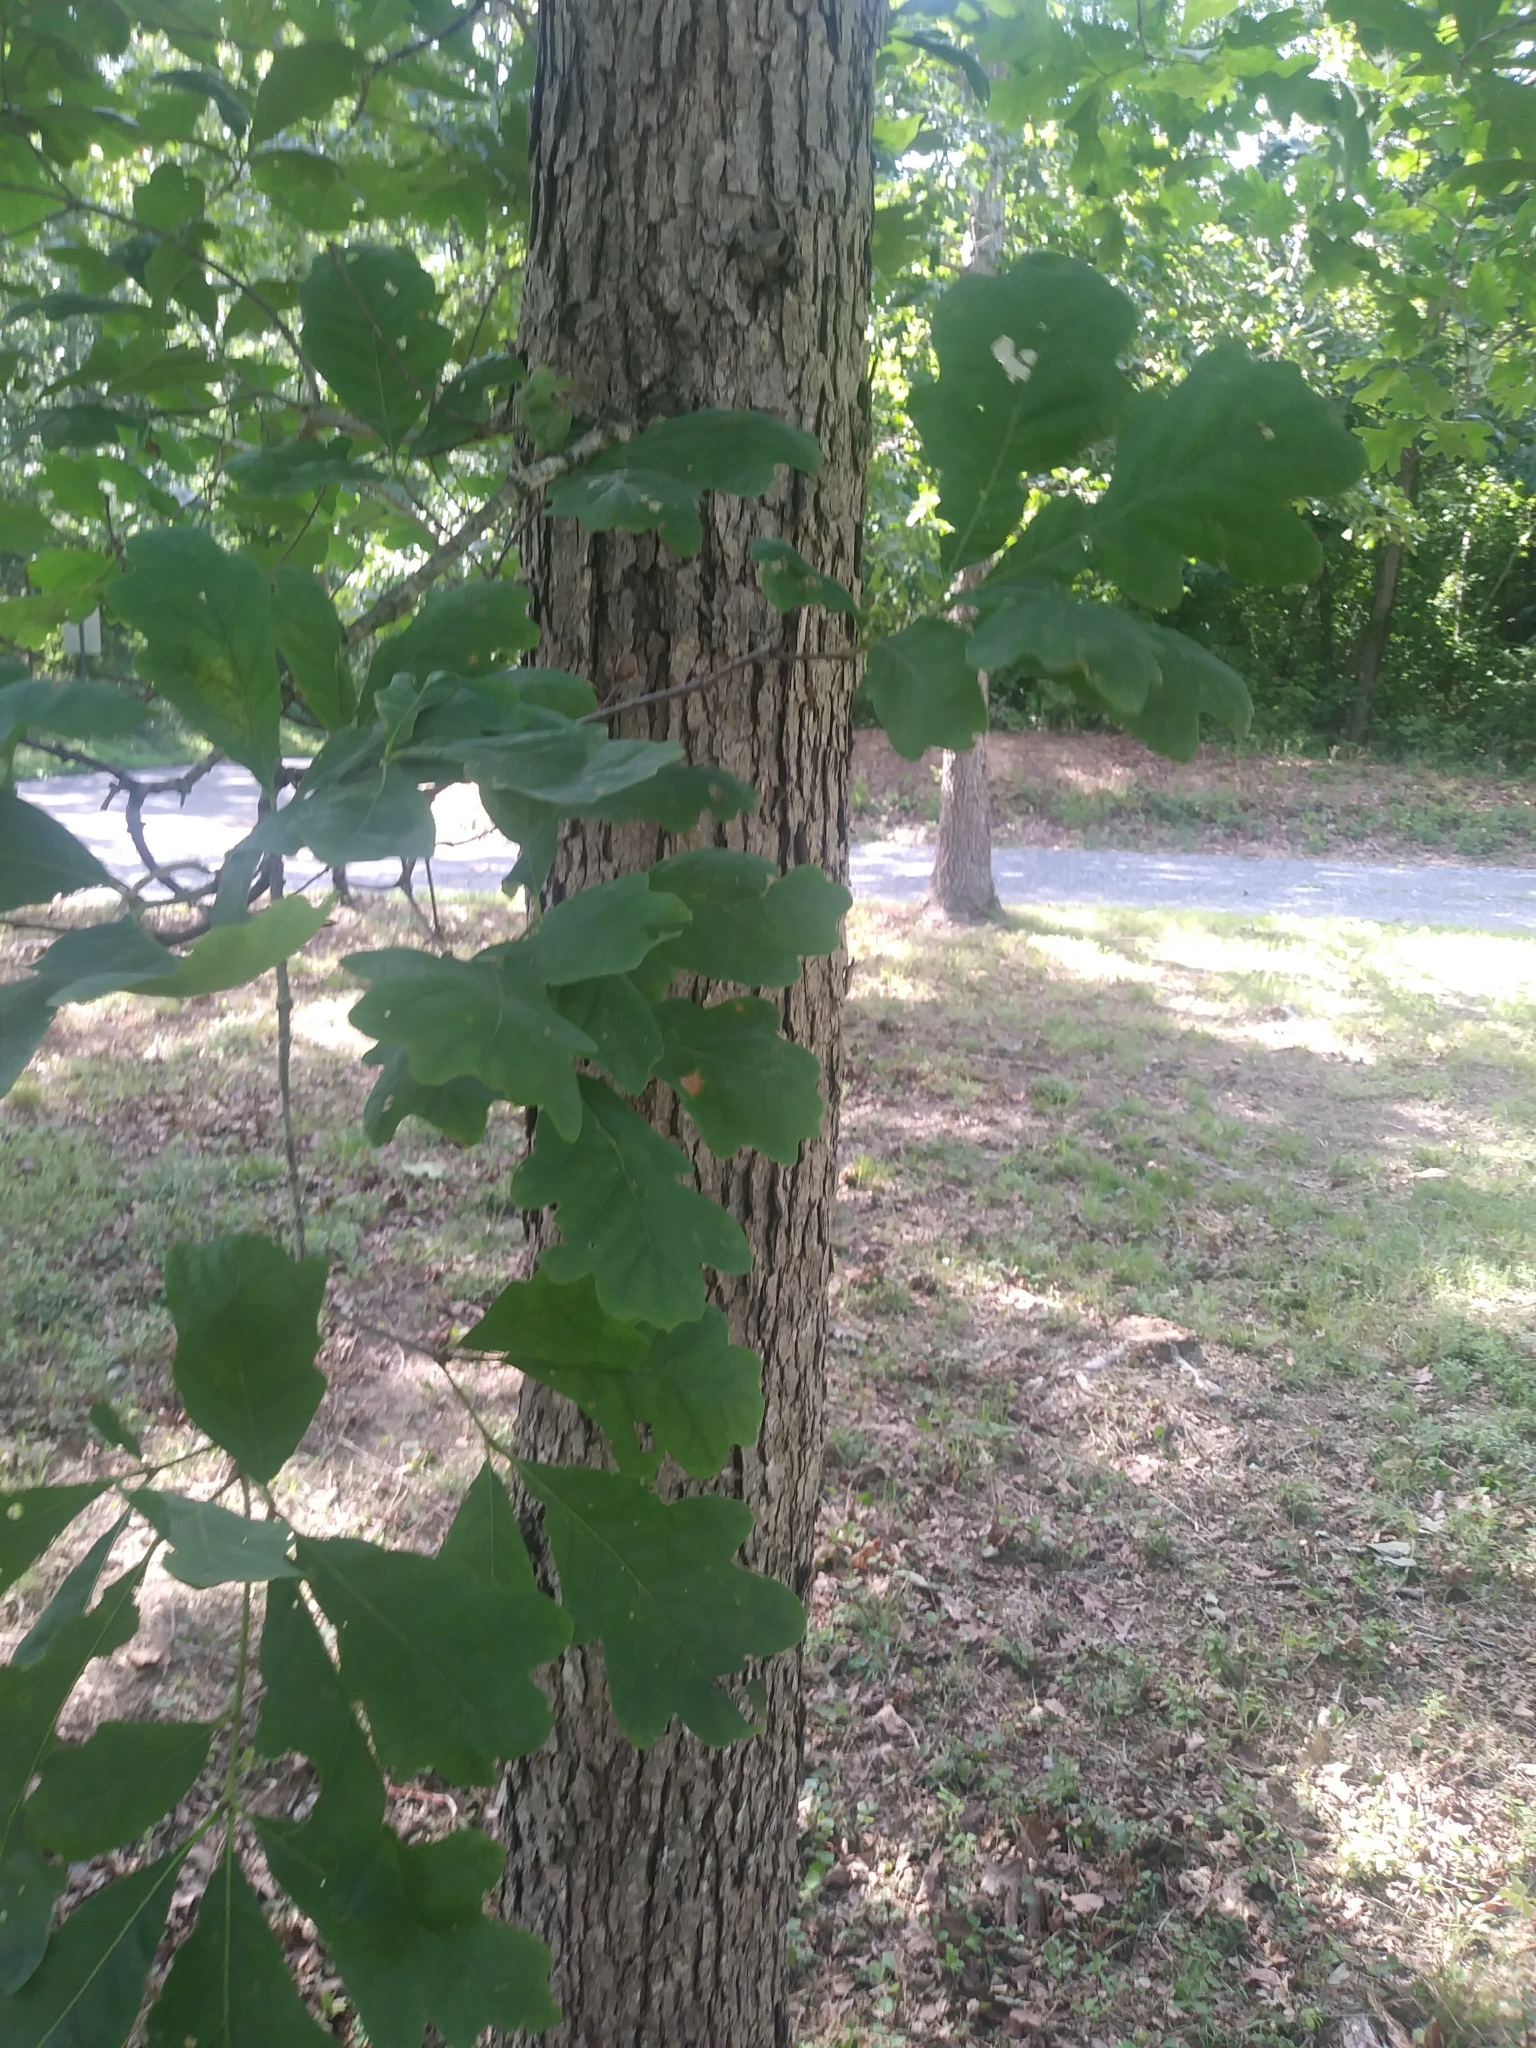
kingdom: Plantae
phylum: Tracheophyta
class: Magnoliopsida
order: Fagales
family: Fagaceae
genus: Quercus
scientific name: Quercus alba
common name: White oak
